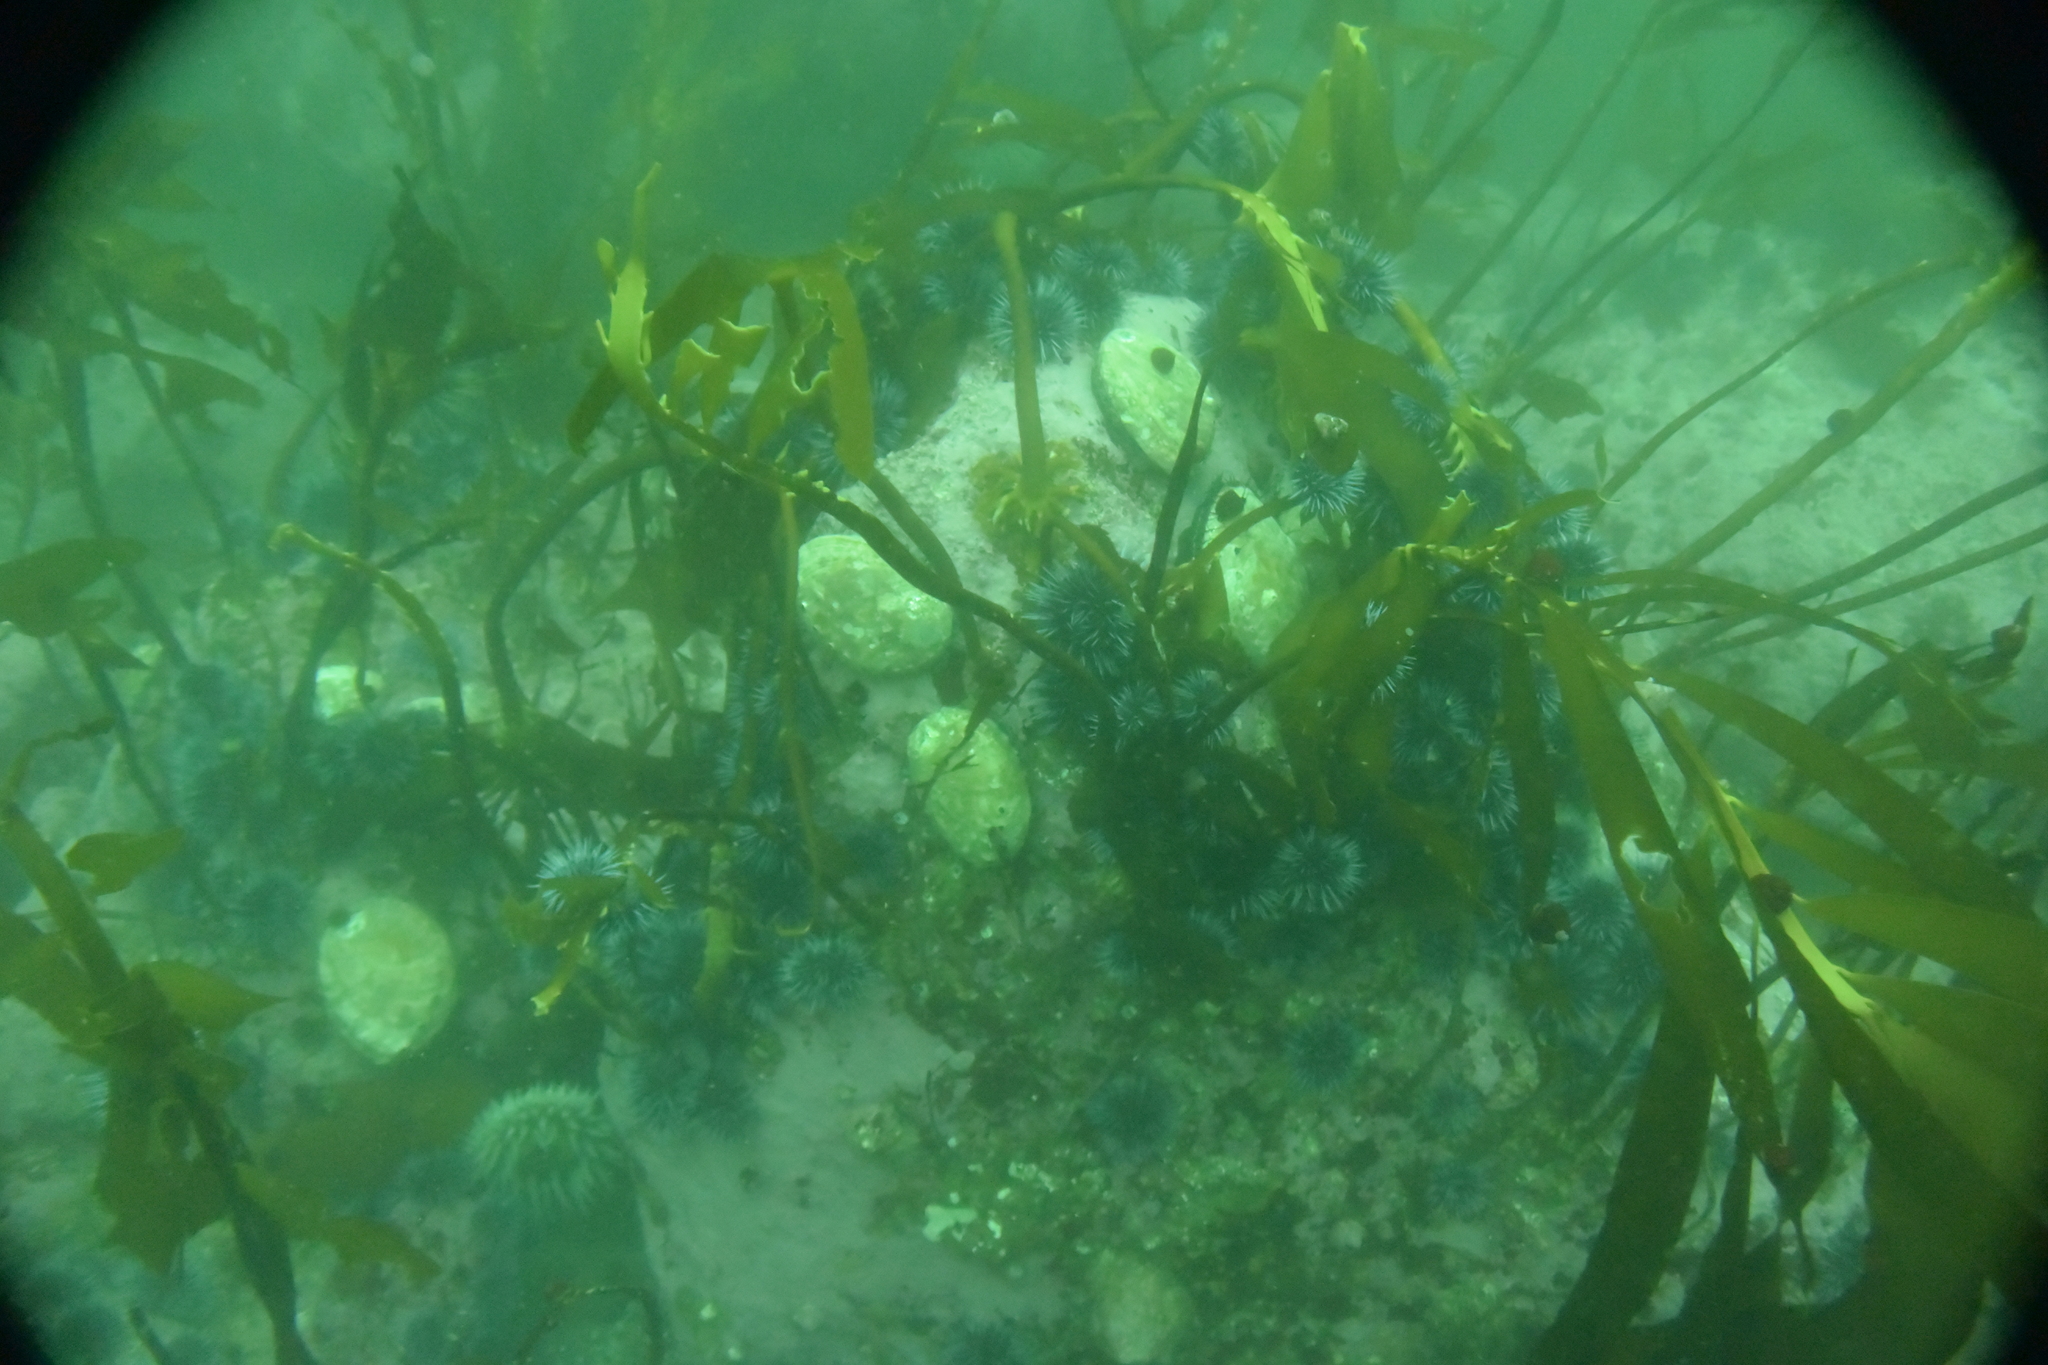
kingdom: Animalia
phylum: Mollusca
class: Gastropoda
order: Lepetellida
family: Haliotidae
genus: Haliotis
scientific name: Haliotis rufescens
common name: Red abalone
